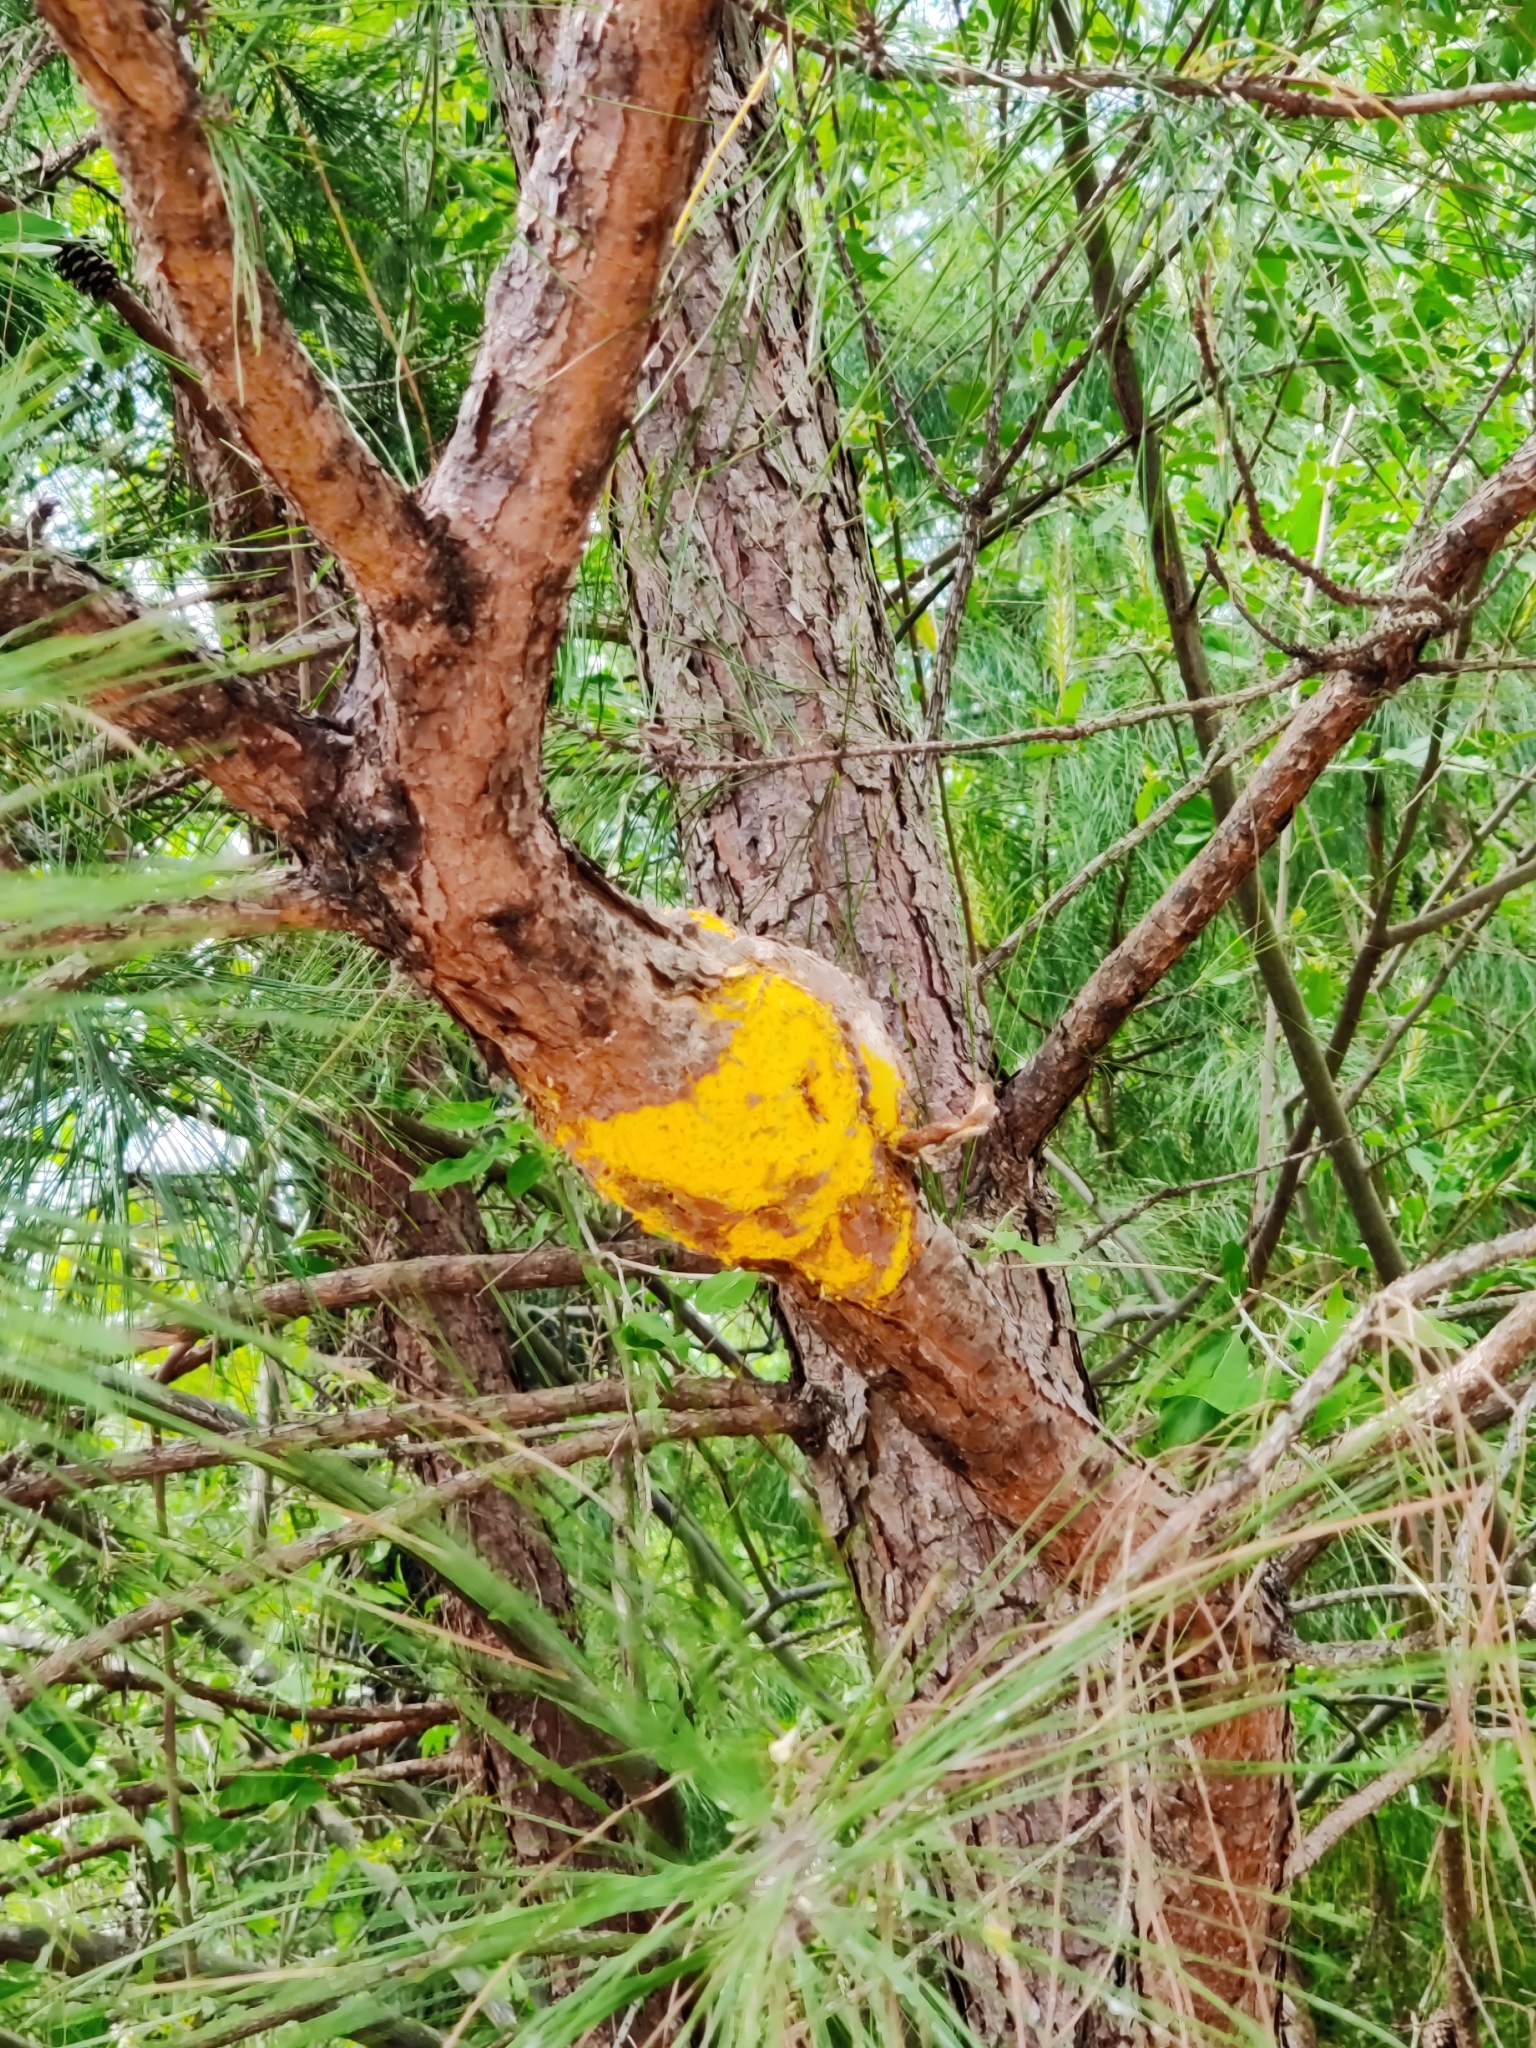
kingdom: Fungi
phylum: Basidiomycota
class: Pucciniomycetes
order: Pucciniales
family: Cronartiaceae
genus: Cronartium
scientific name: Cronartium quercuum
